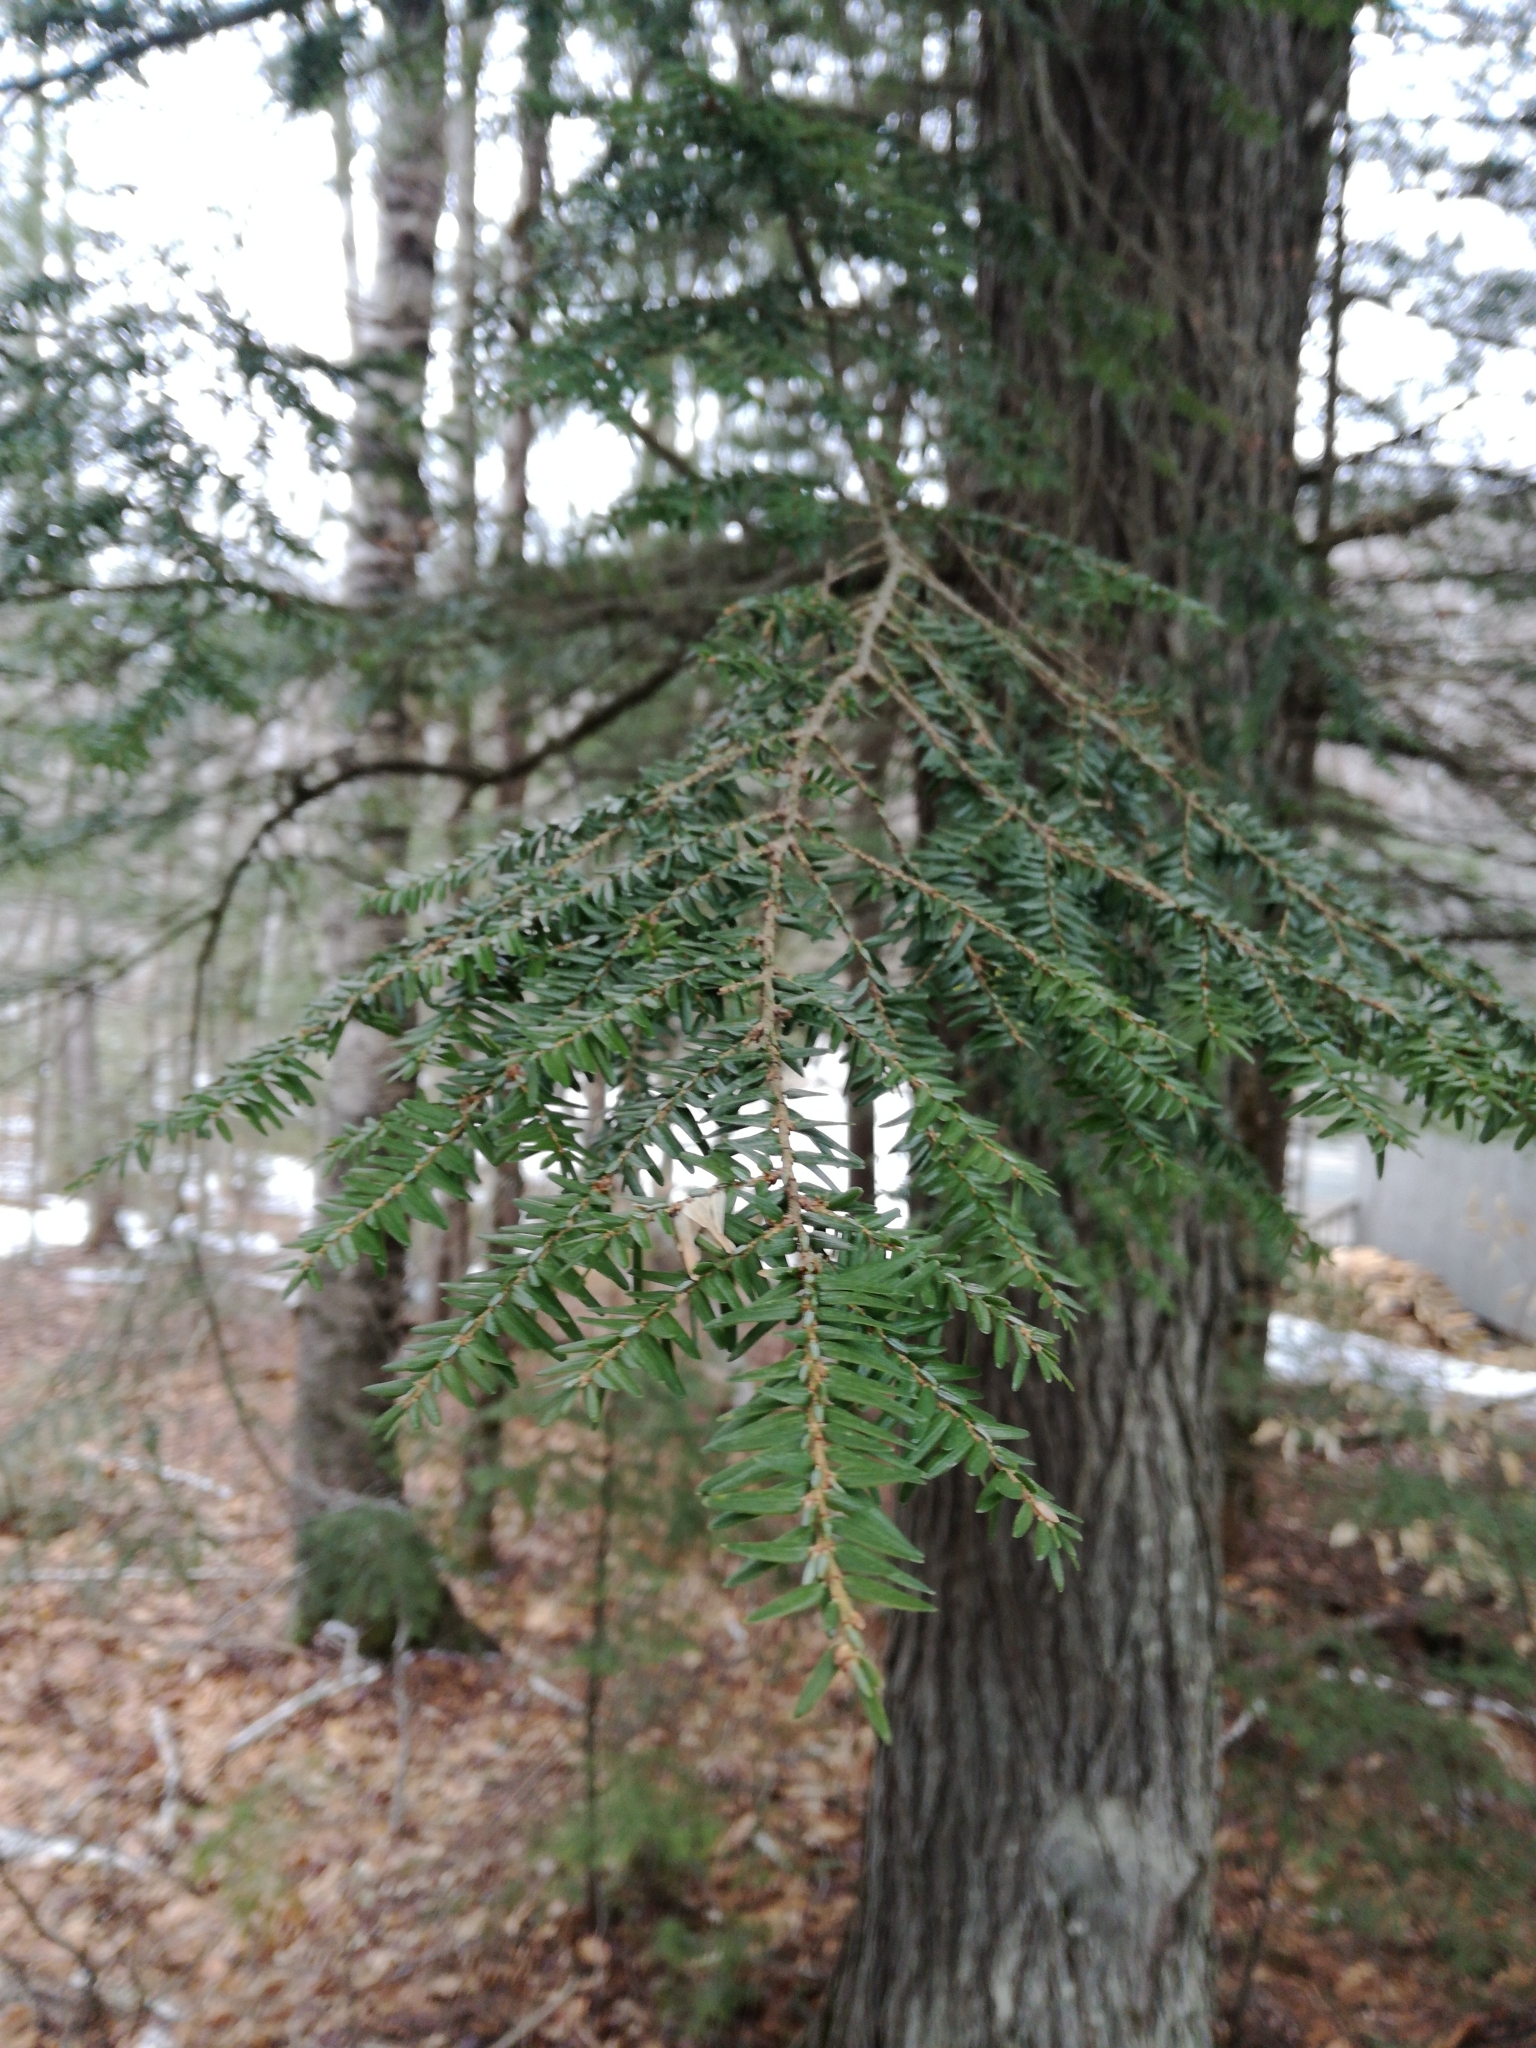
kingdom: Plantae
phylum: Tracheophyta
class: Pinopsida
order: Pinales
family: Pinaceae
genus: Tsuga
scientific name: Tsuga canadensis
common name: Eastern hemlock
